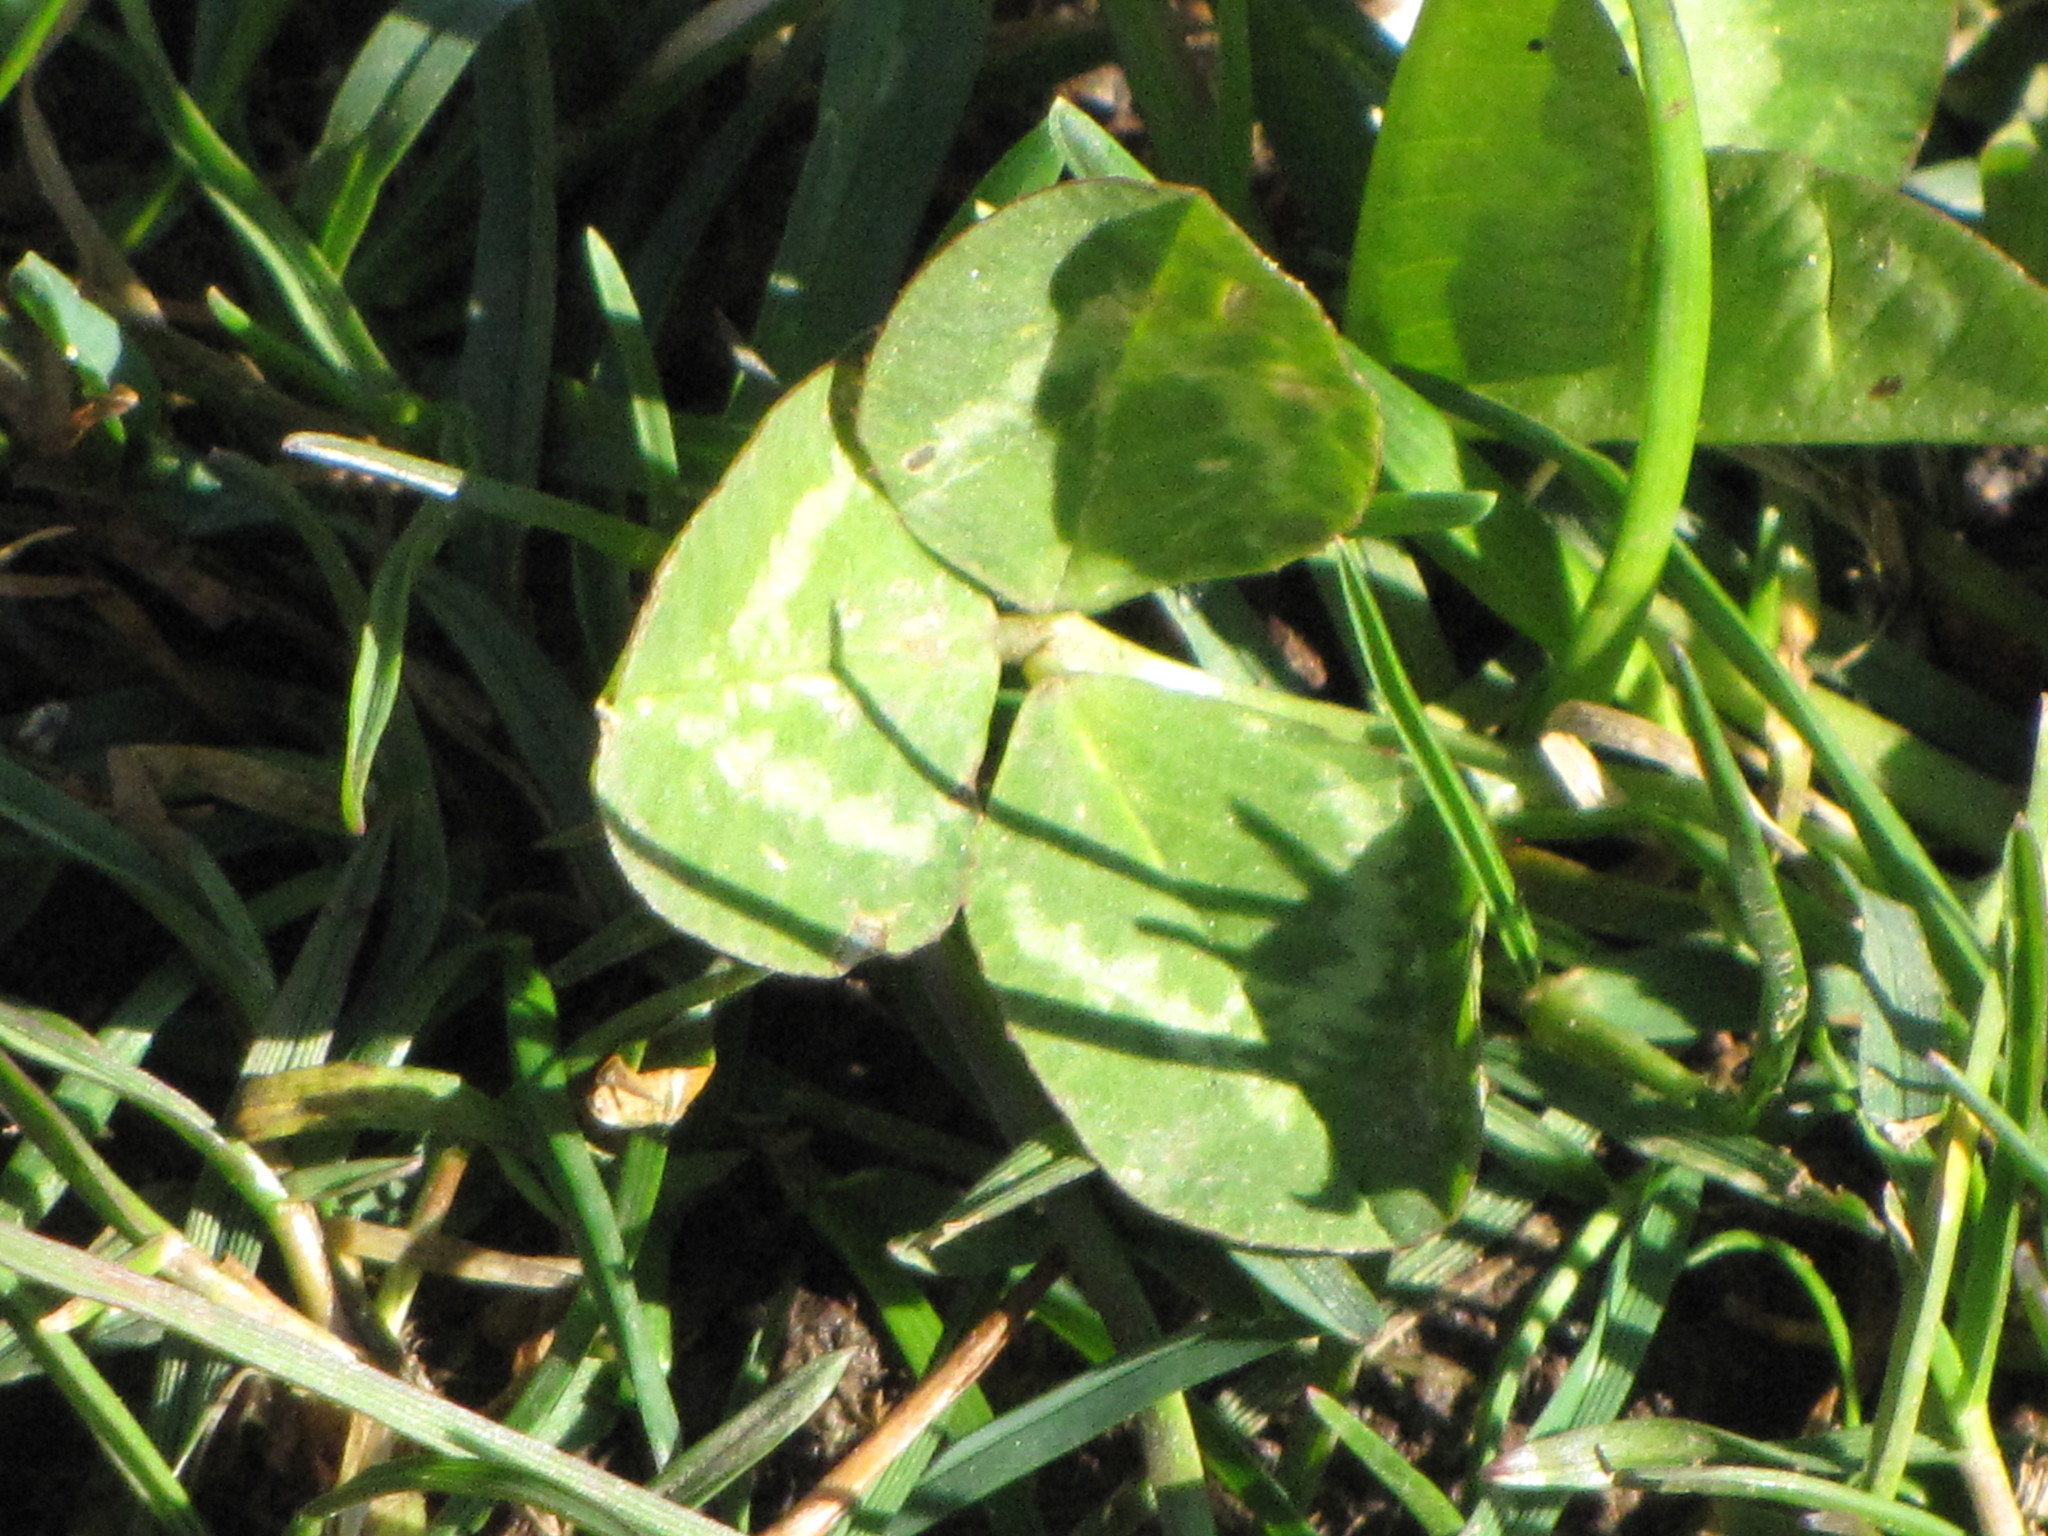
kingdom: Plantae
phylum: Tracheophyta
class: Magnoliopsida
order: Fabales
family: Fabaceae
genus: Trifolium
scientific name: Trifolium repens
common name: White clover
